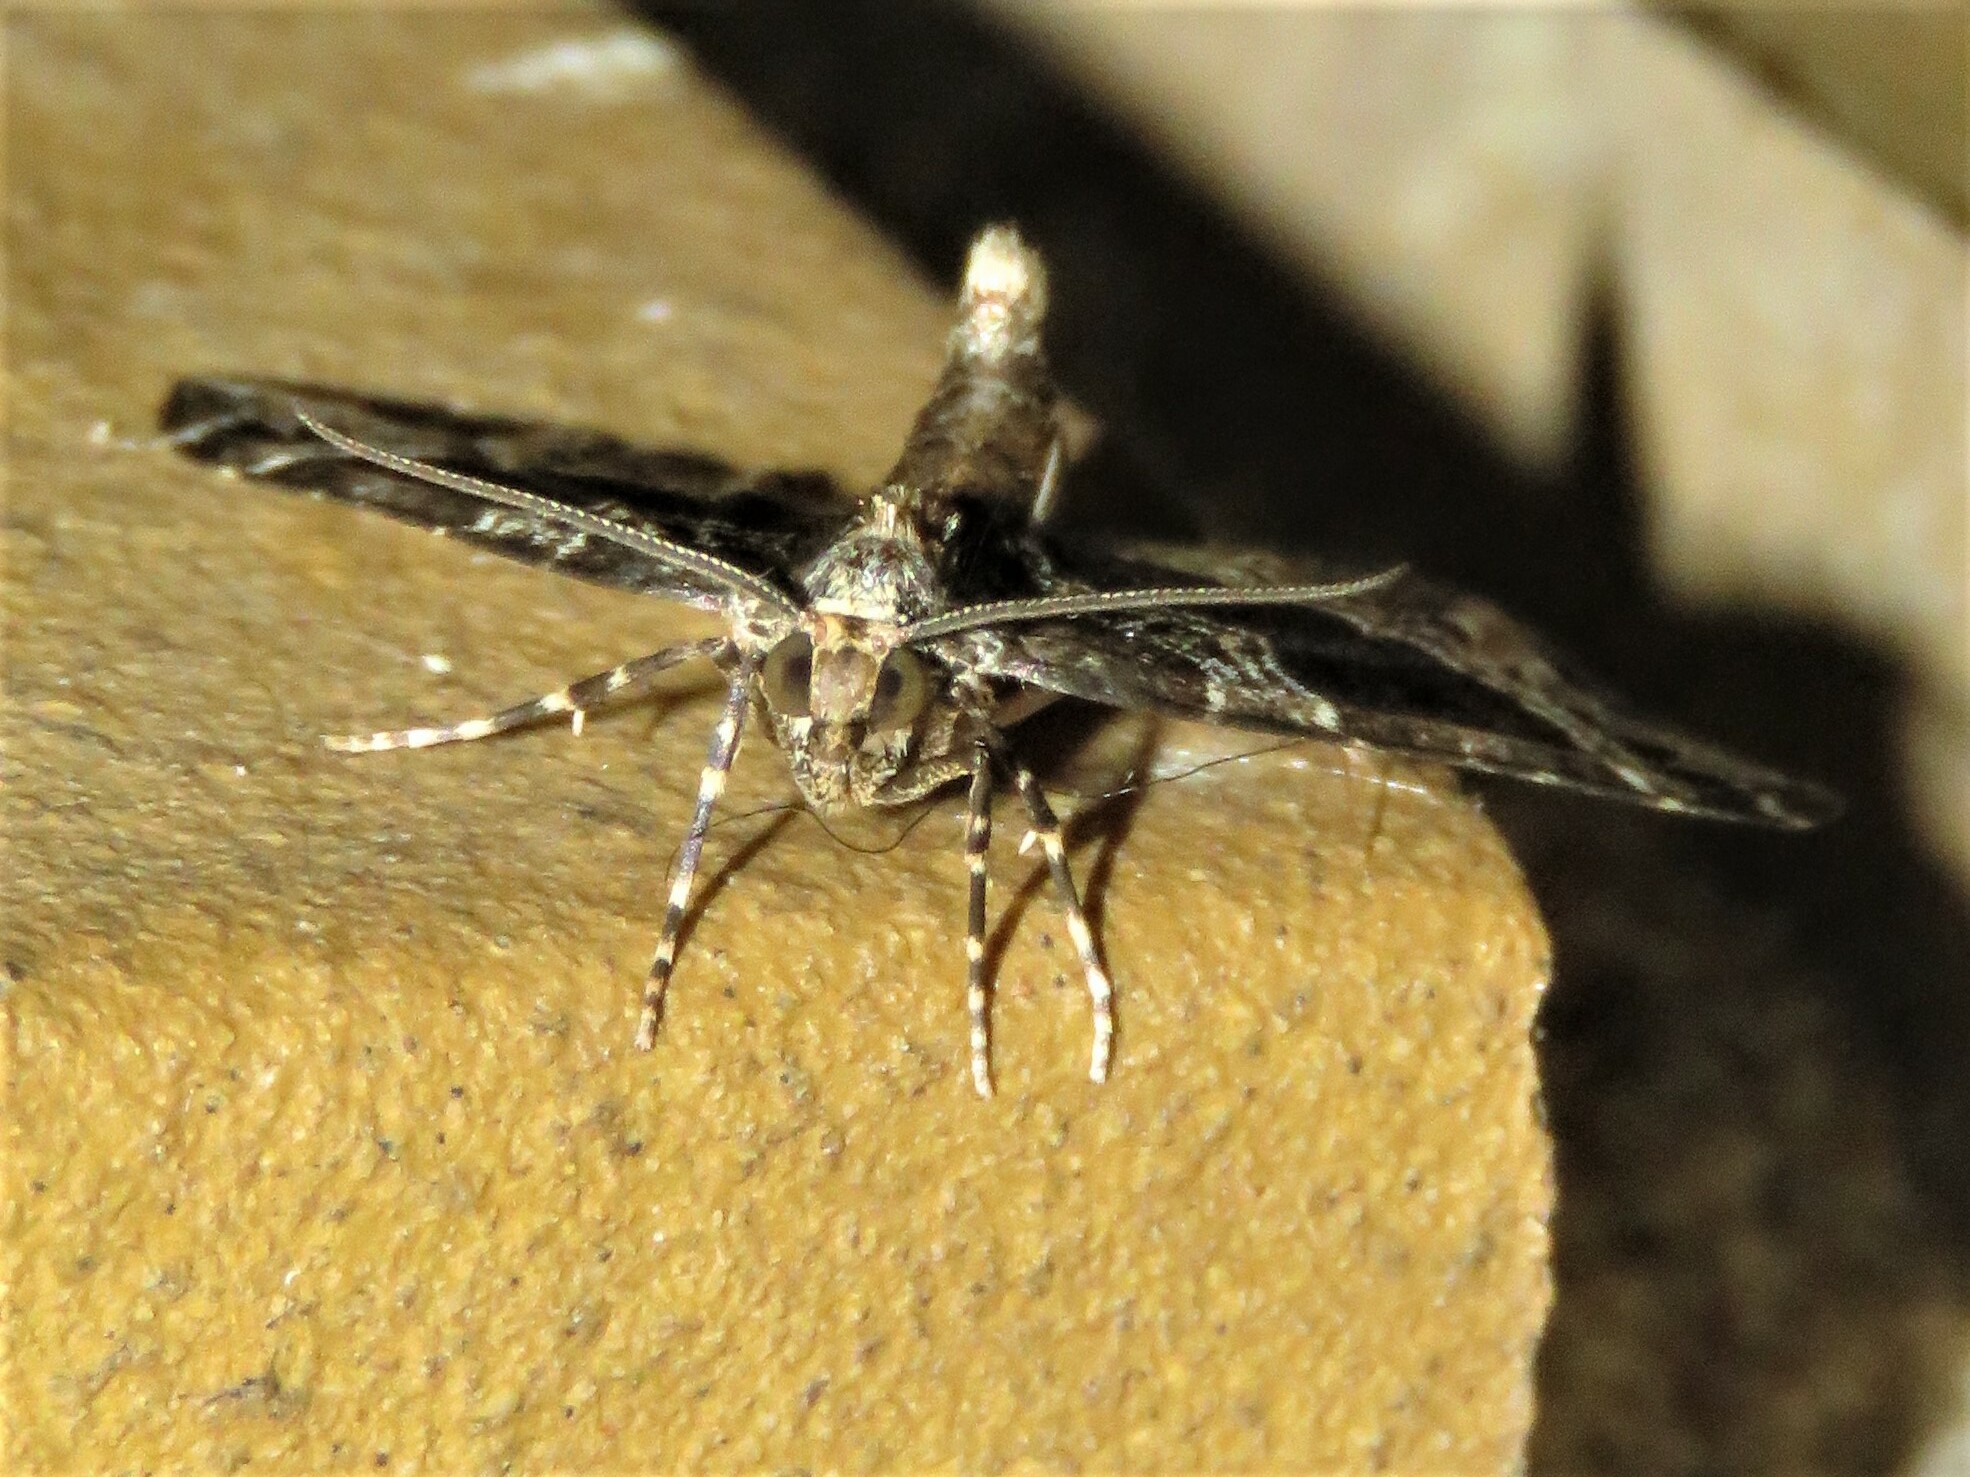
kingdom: Animalia
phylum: Arthropoda
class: Insecta
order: Lepidoptera
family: Geometridae
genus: Ecliptopera
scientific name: Ecliptopera silaceata
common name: Small phoenix
